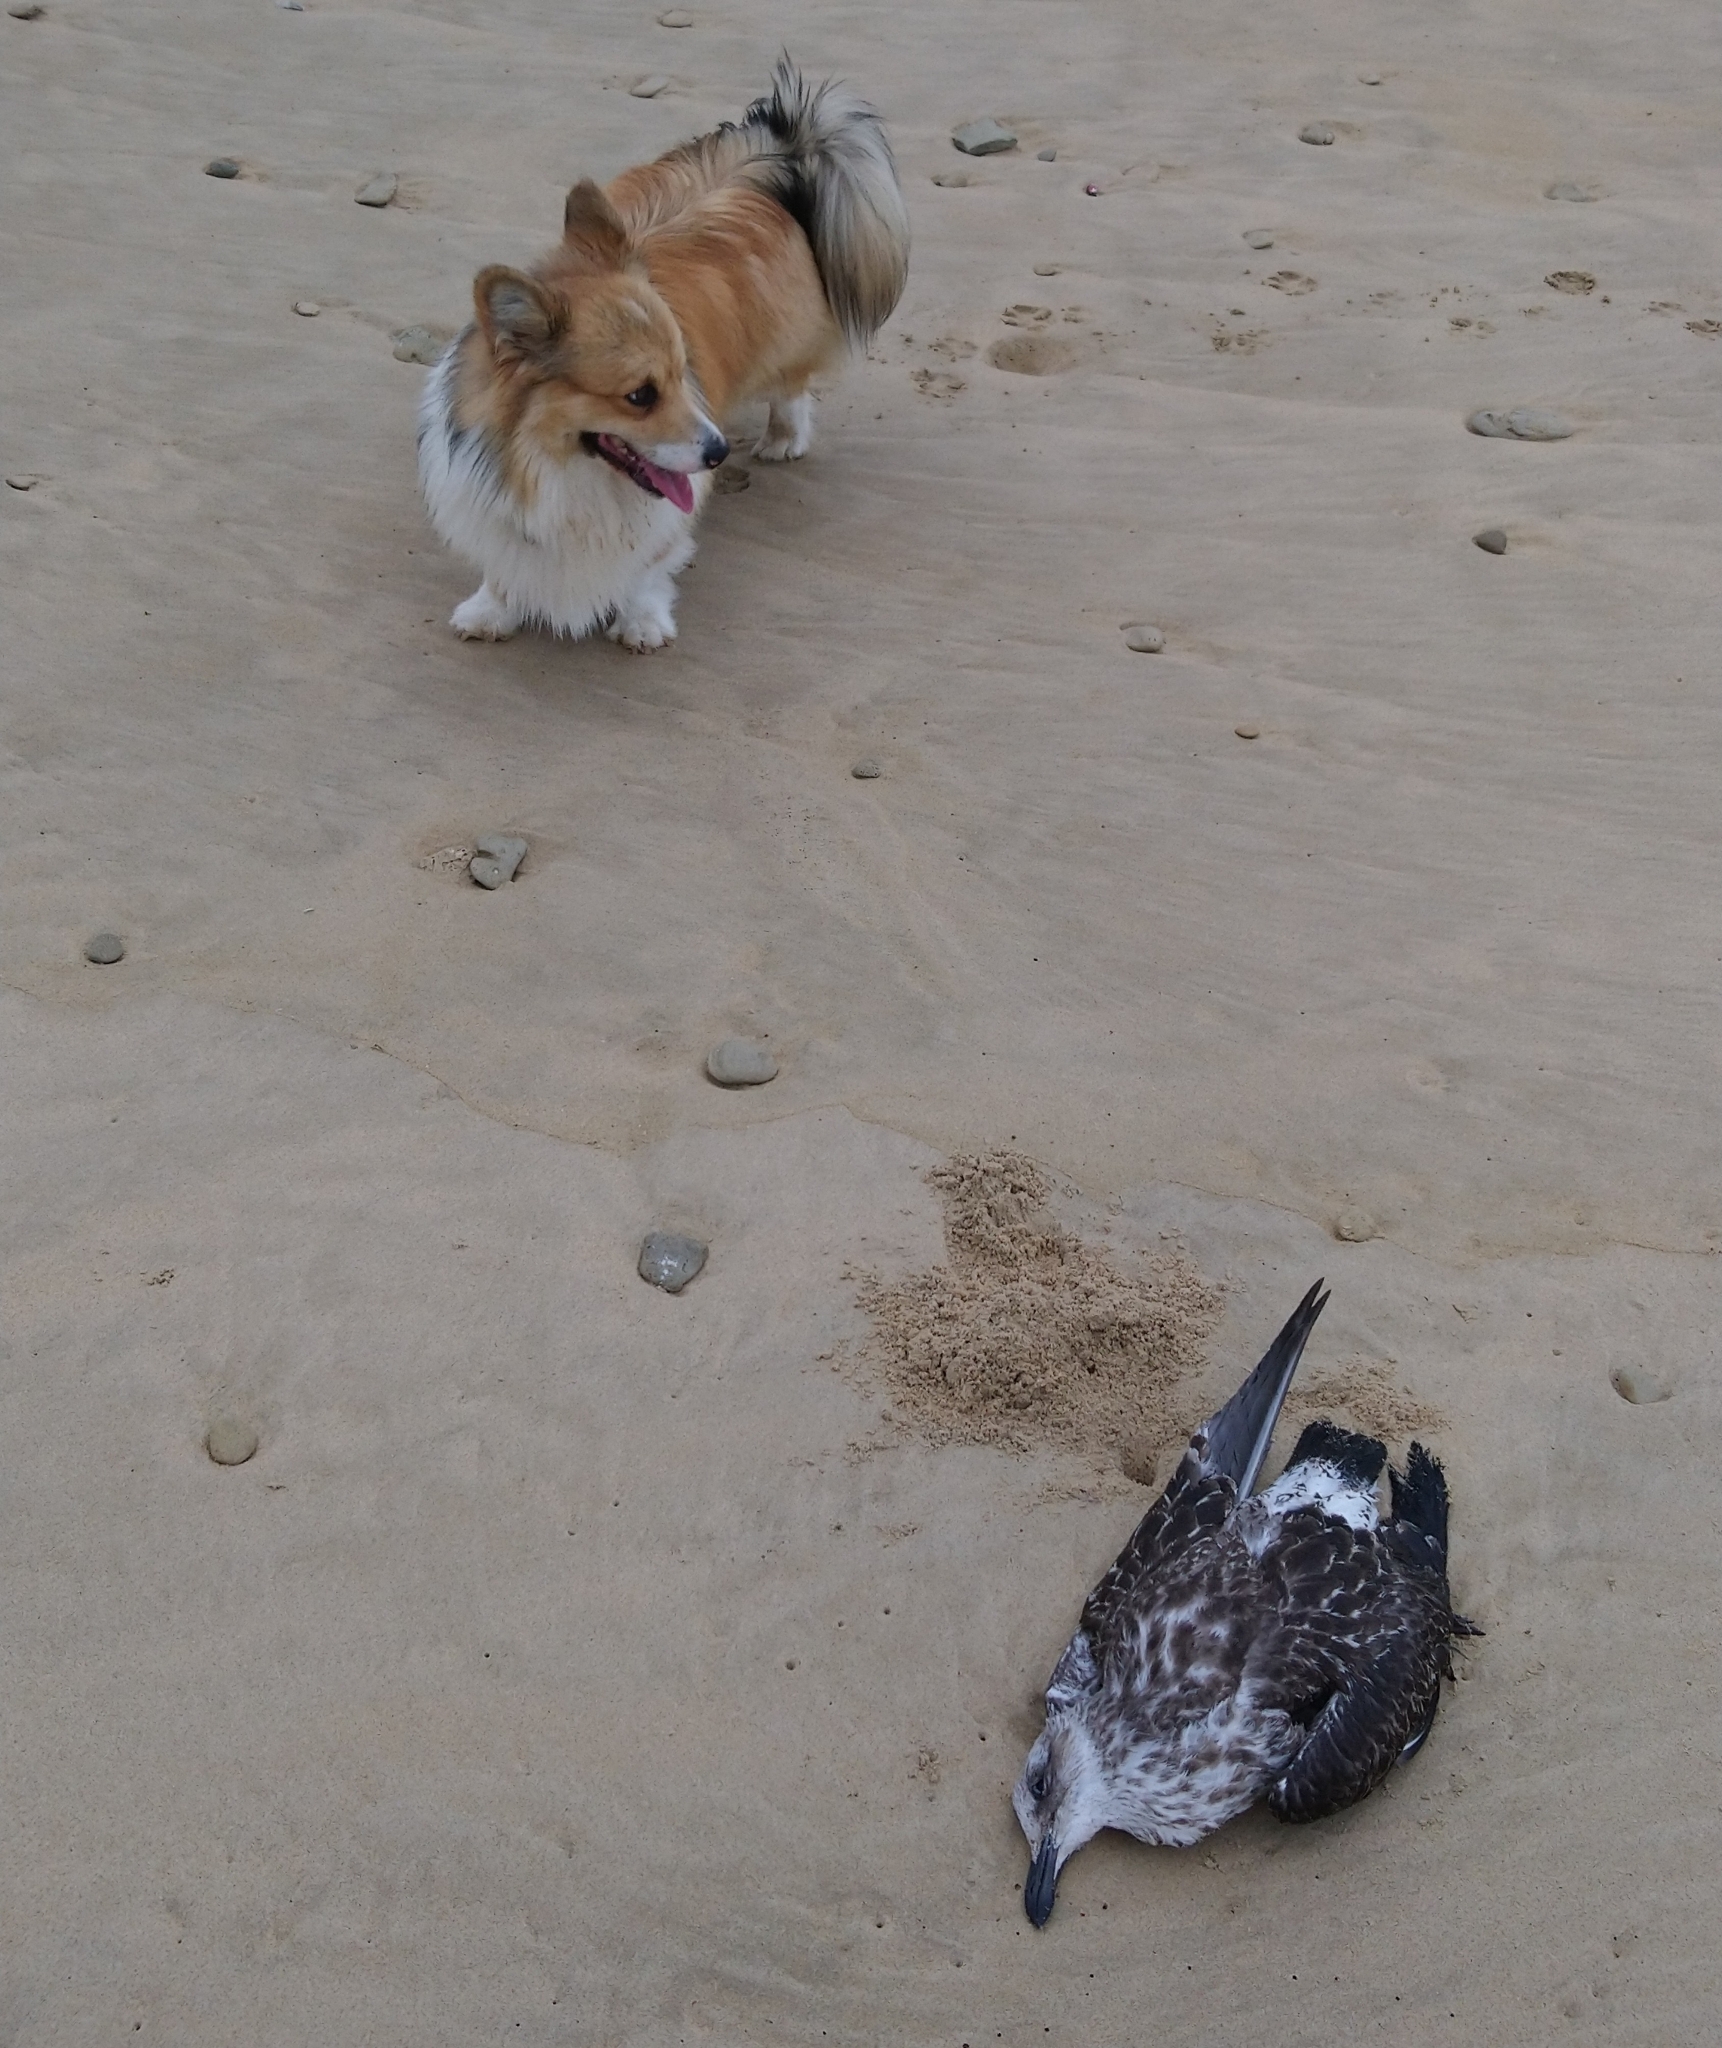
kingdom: Animalia
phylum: Chordata
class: Aves
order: Charadriiformes
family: Laridae
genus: Larus
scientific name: Larus dominicanus
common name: Kelp gull
